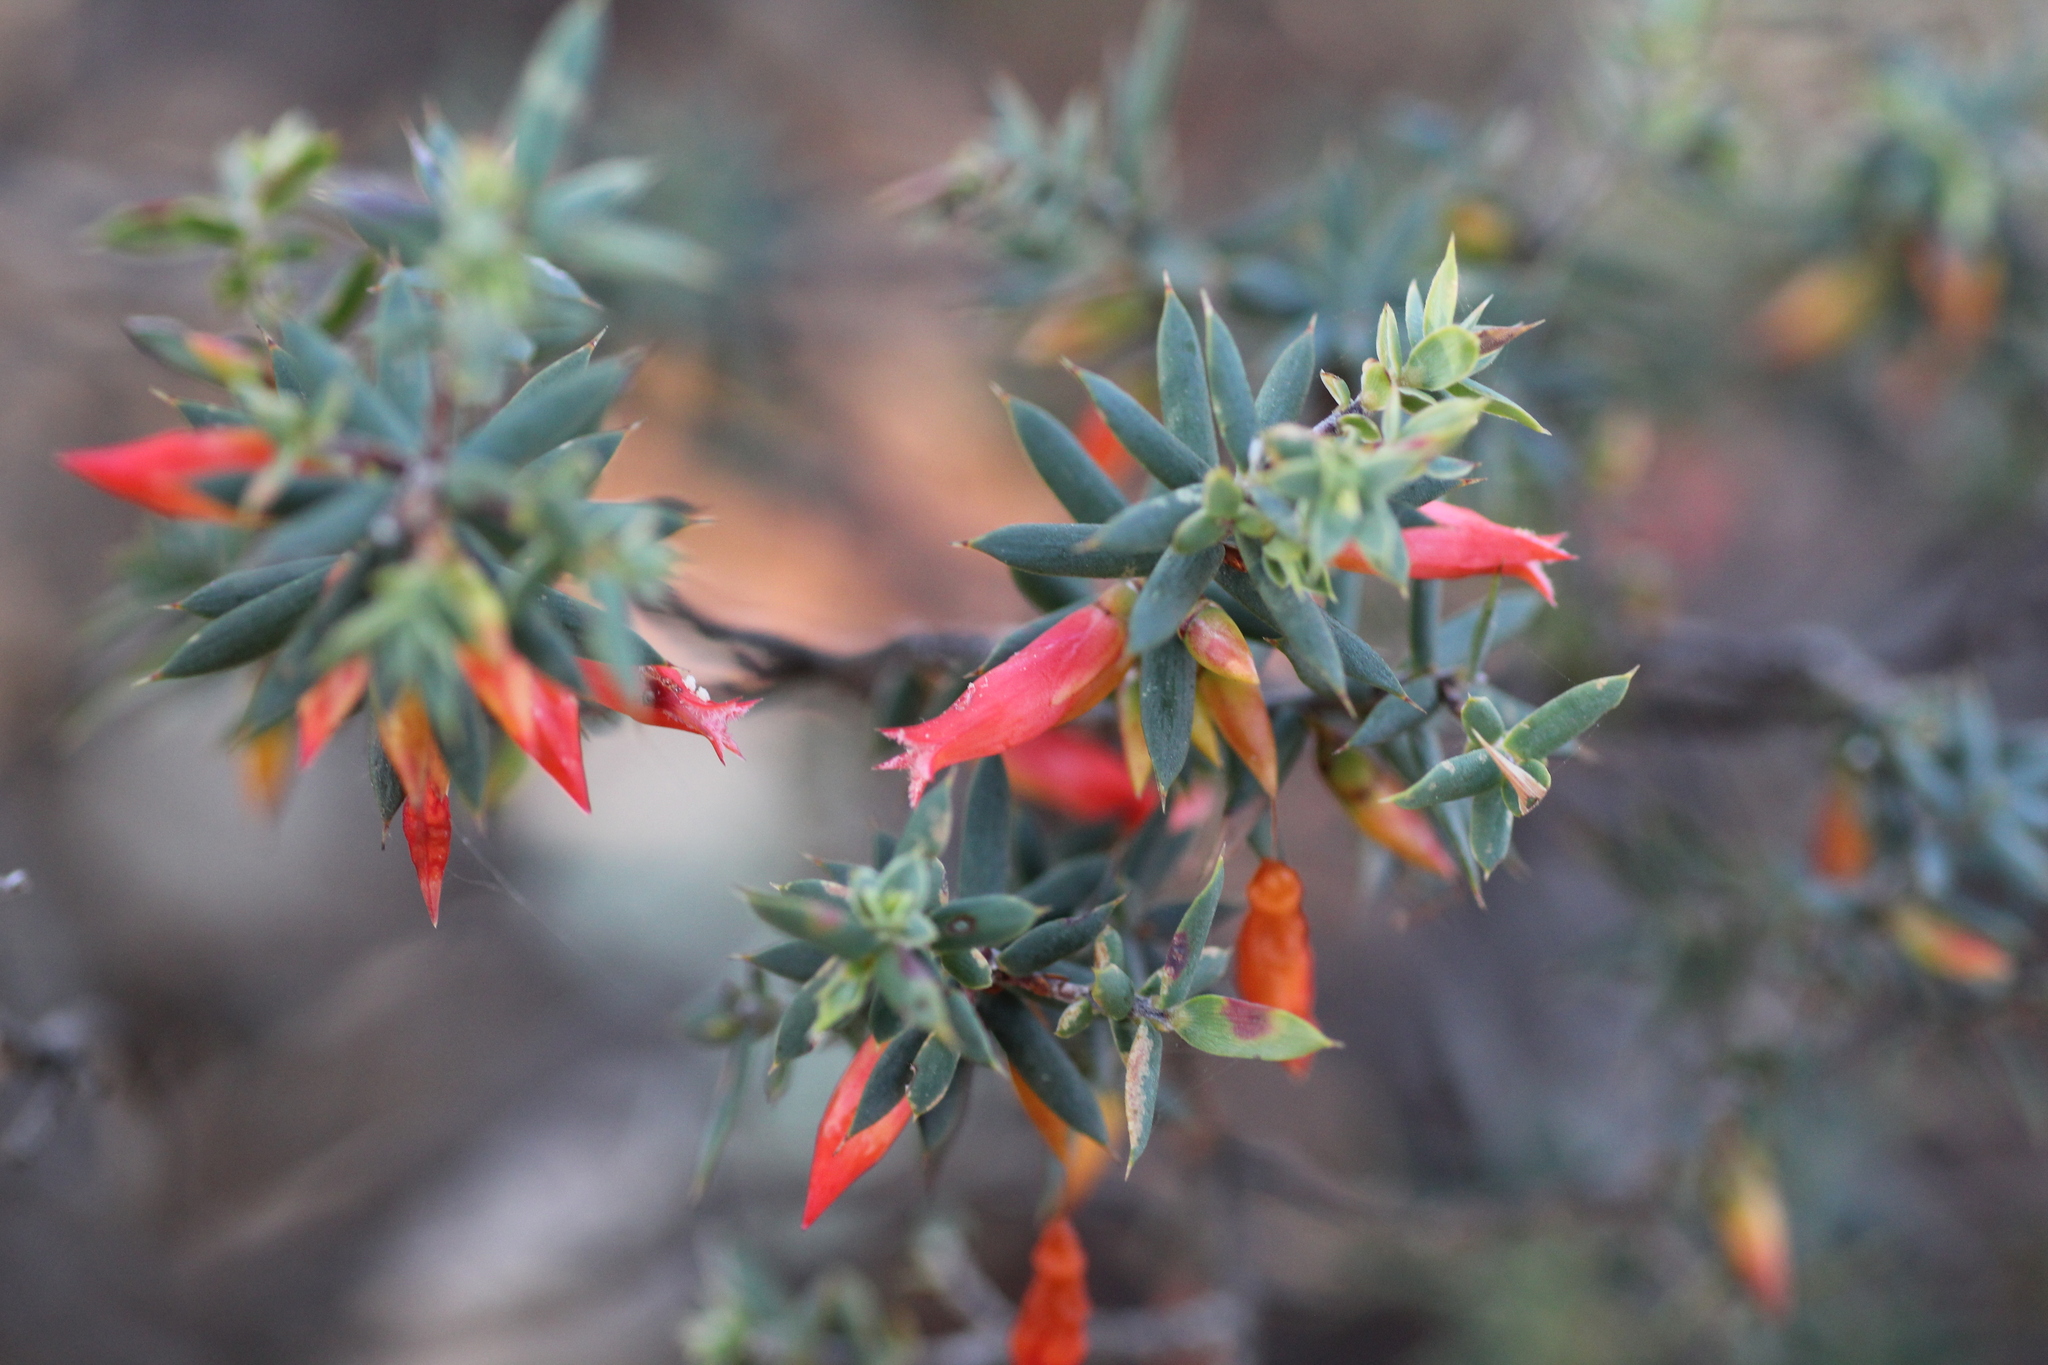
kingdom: Plantae
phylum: Tracheophyta
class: Magnoliopsida
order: Ericales
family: Ericaceae
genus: Styphelia
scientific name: Styphelia epacridis
